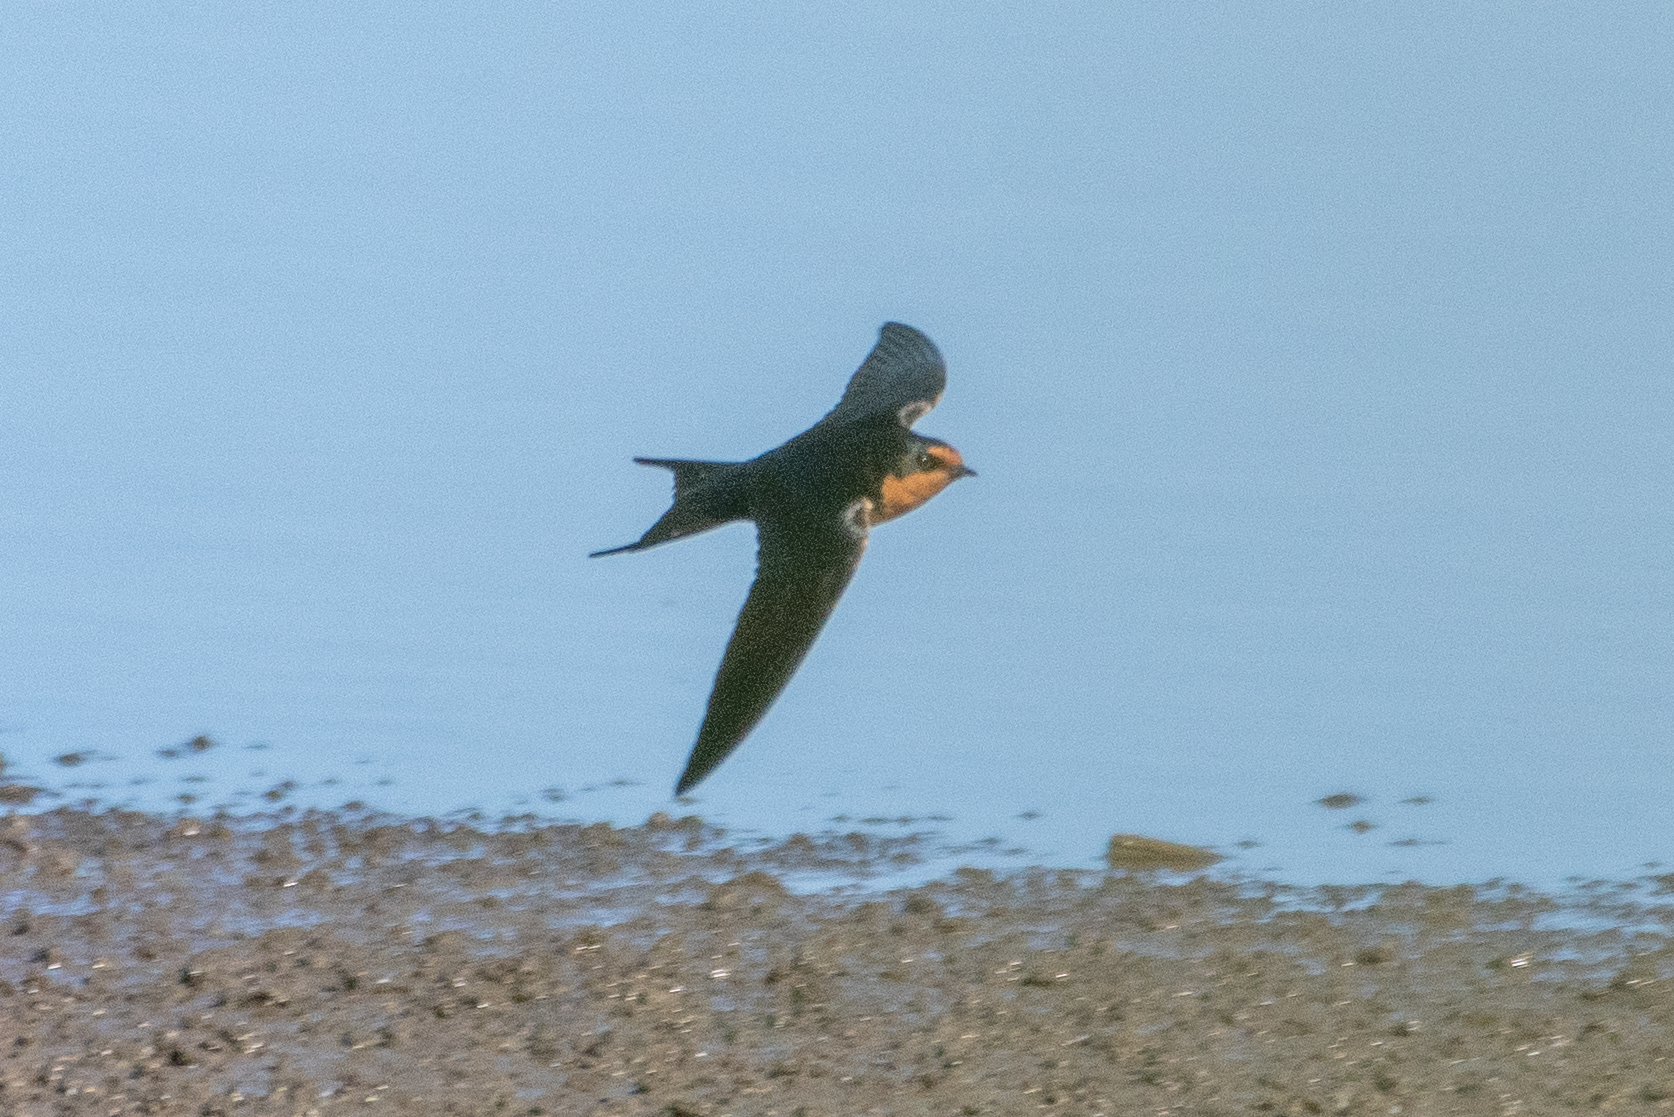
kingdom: Animalia
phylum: Chordata
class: Aves
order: Passeriformes
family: Hirundinidae
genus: Hirundo
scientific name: Hirundo rustica
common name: Barn swallow
